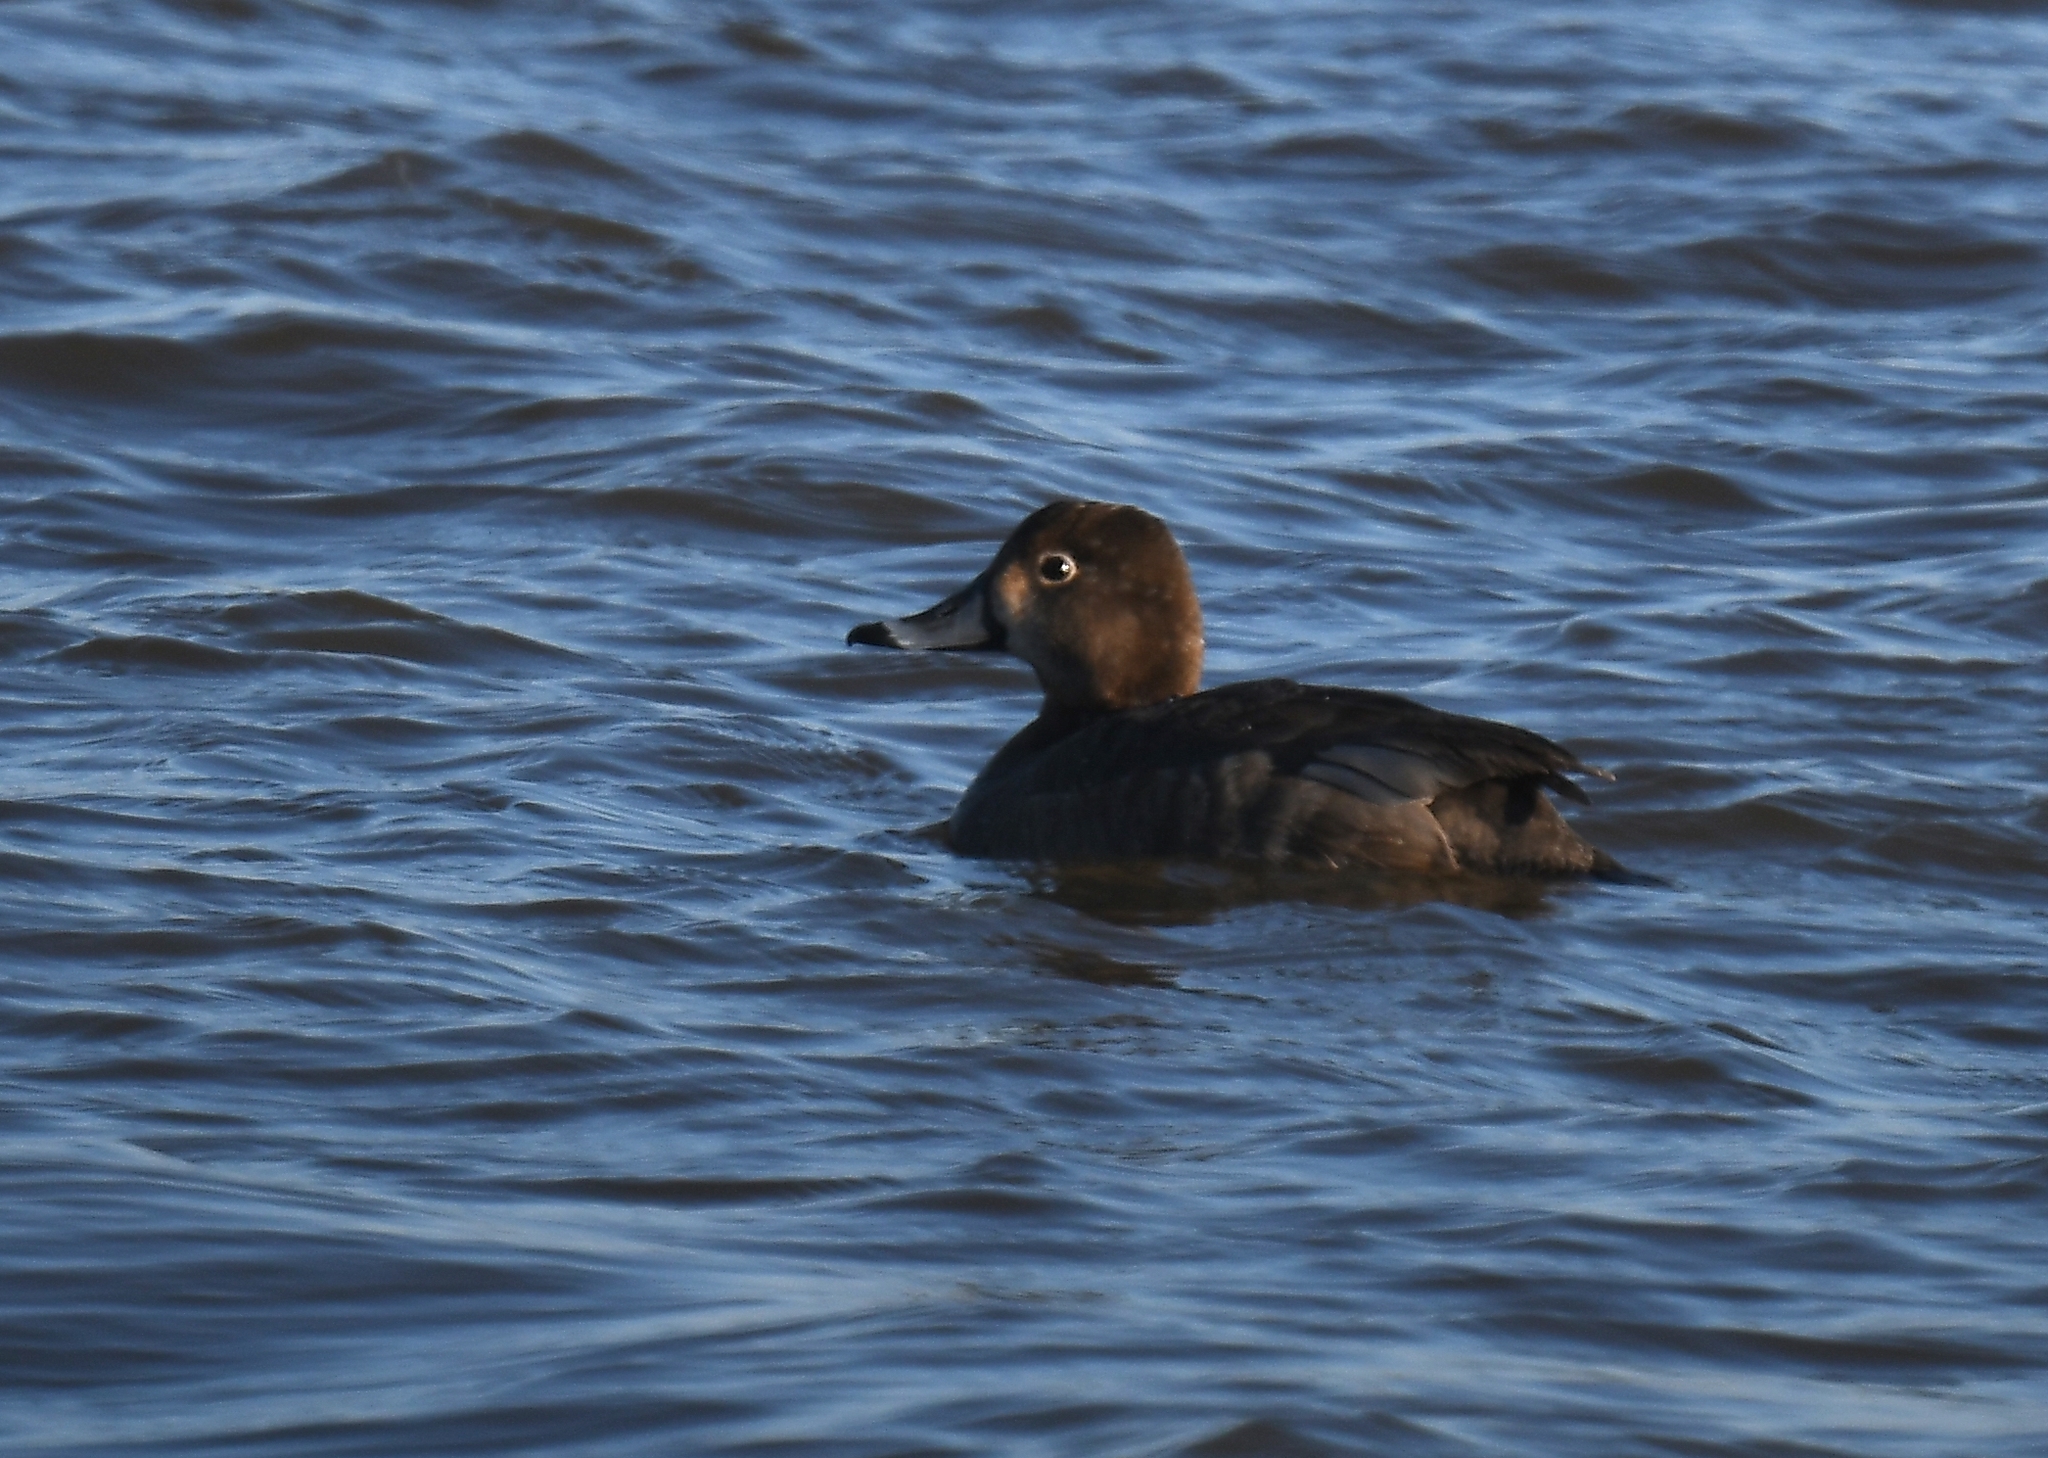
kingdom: Animalia
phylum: Chordata
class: Aves
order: Anseriformes
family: Anatidae
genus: Aythya
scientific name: Aythya collaris
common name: Ring-necked duck
